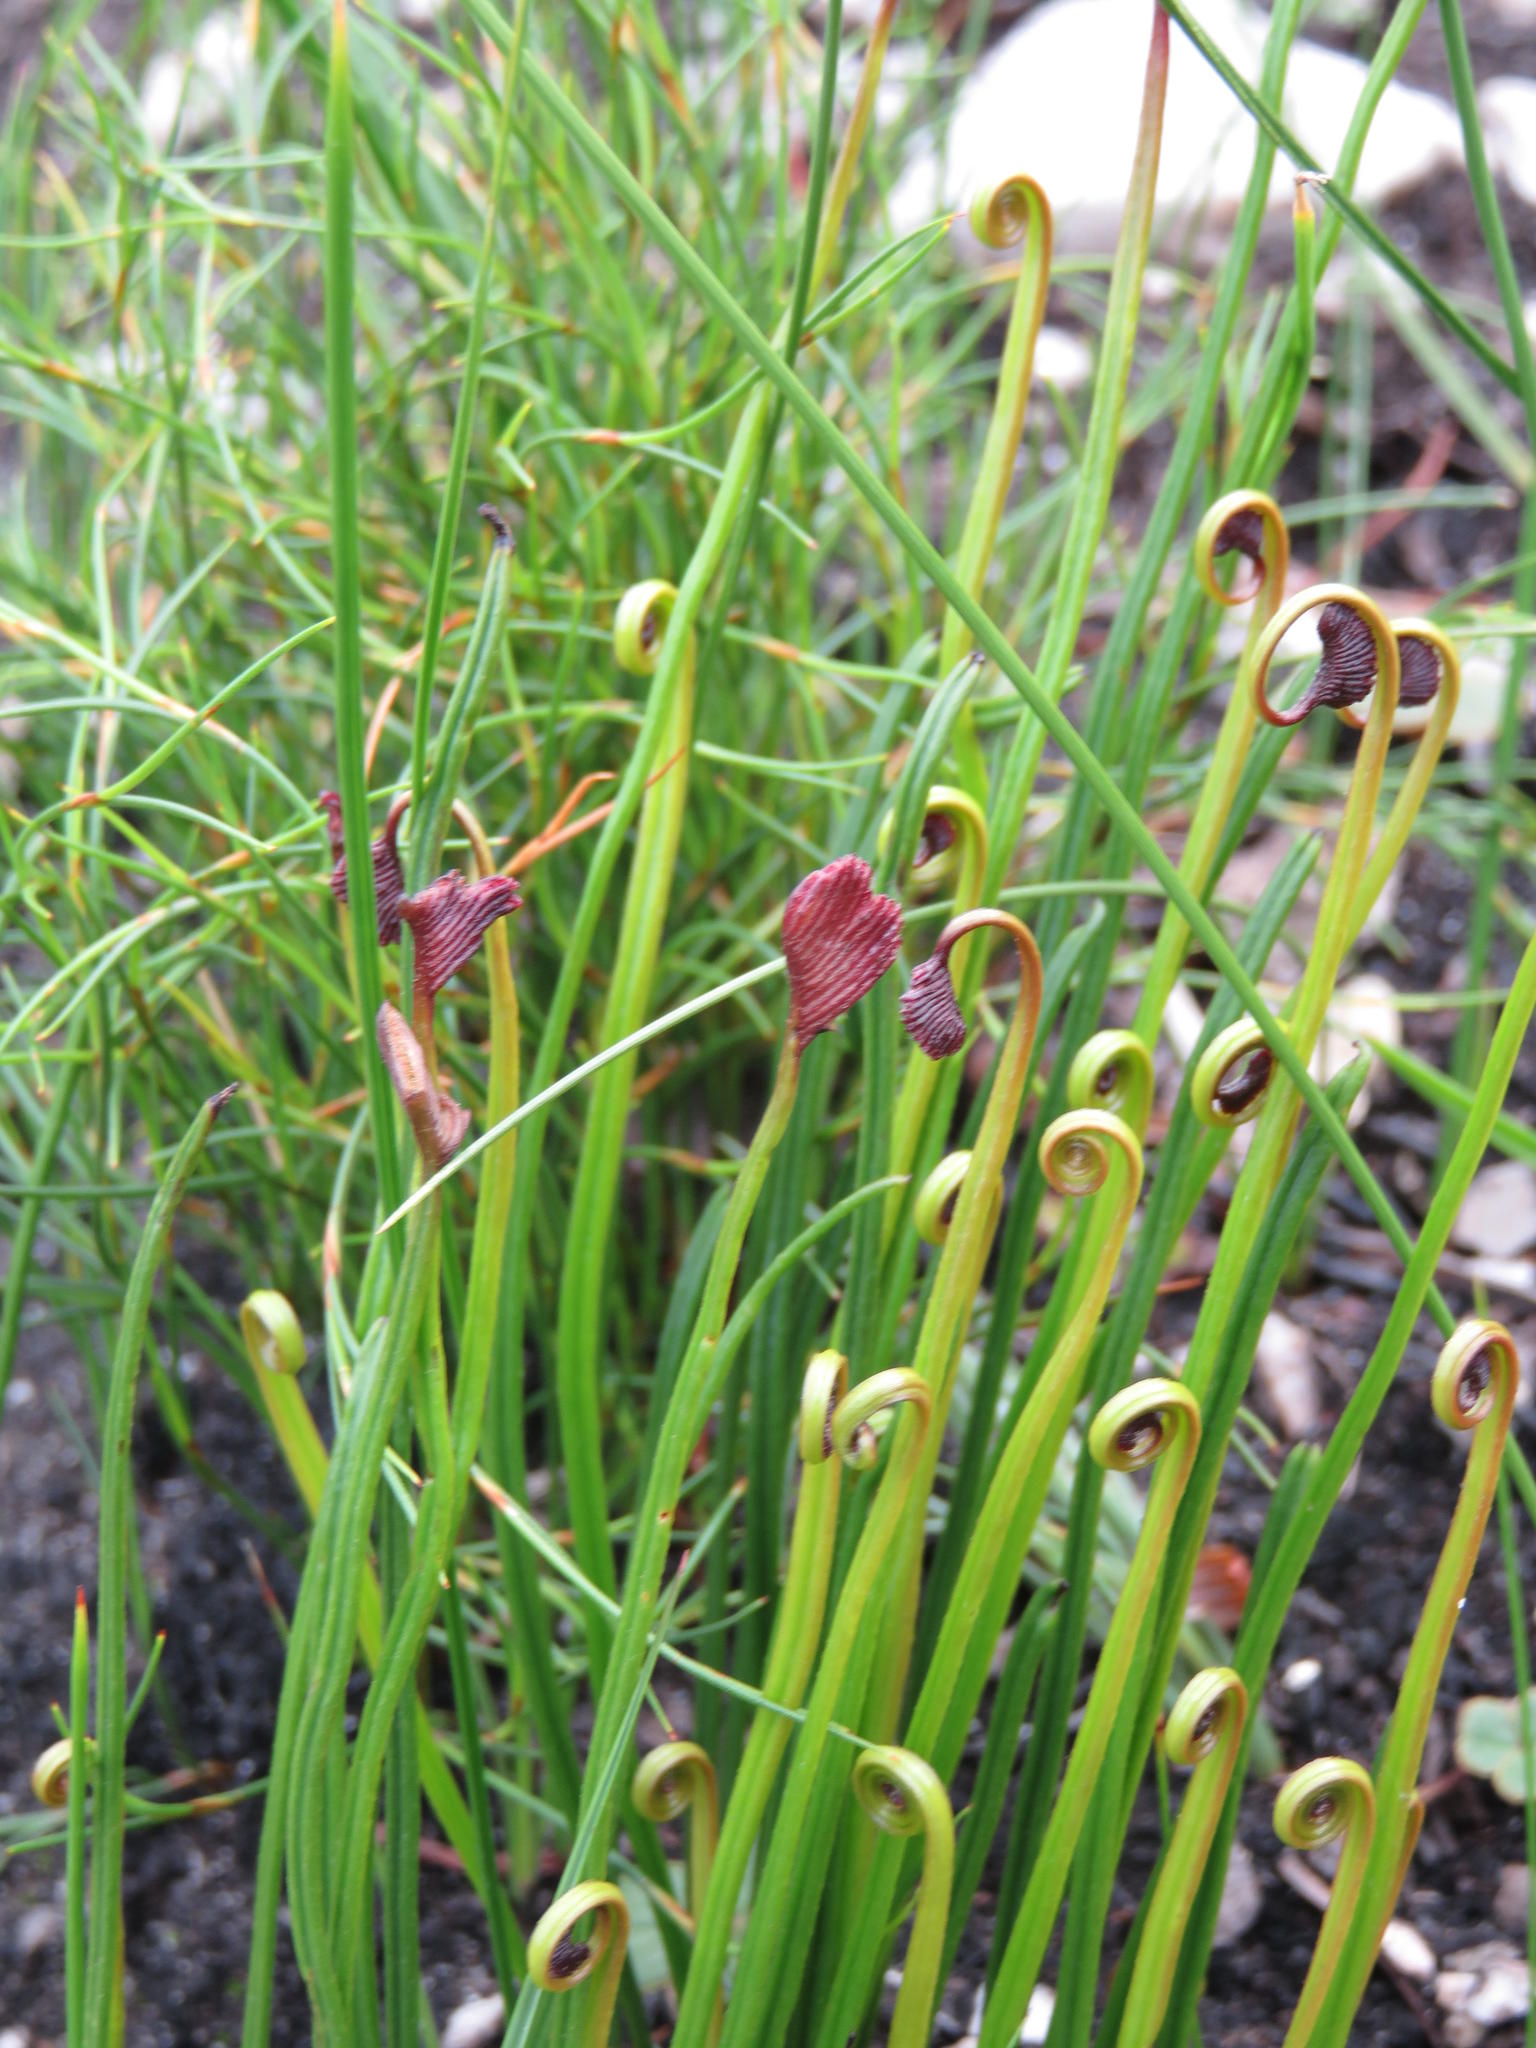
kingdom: Plantae
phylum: Tracheophyta
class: Polypodiopsida
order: Schizaeales
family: Schizaeaceae
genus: Schizaea
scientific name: Schizaea pectinata
